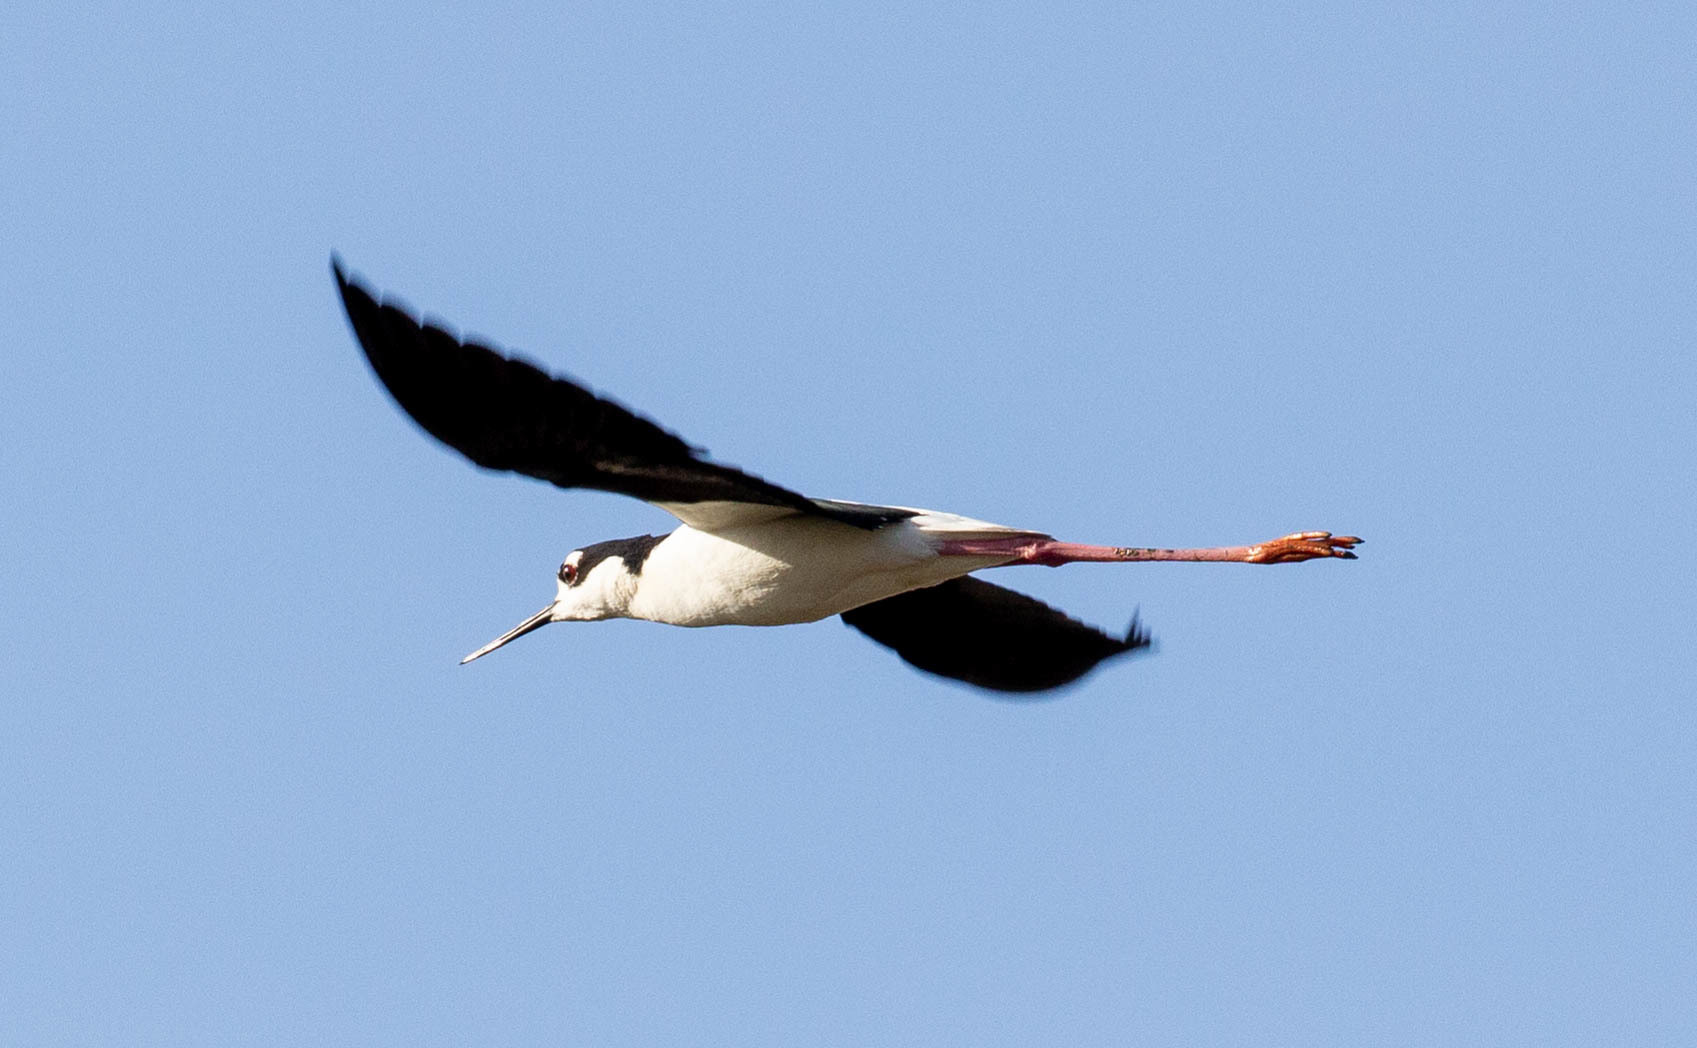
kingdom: Animalia
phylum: Chordata
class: Aves
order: Charadriiformes
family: Recurvirostridae
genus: Himantopus
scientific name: Himantopus mexicanus
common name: Black-necked stilt
